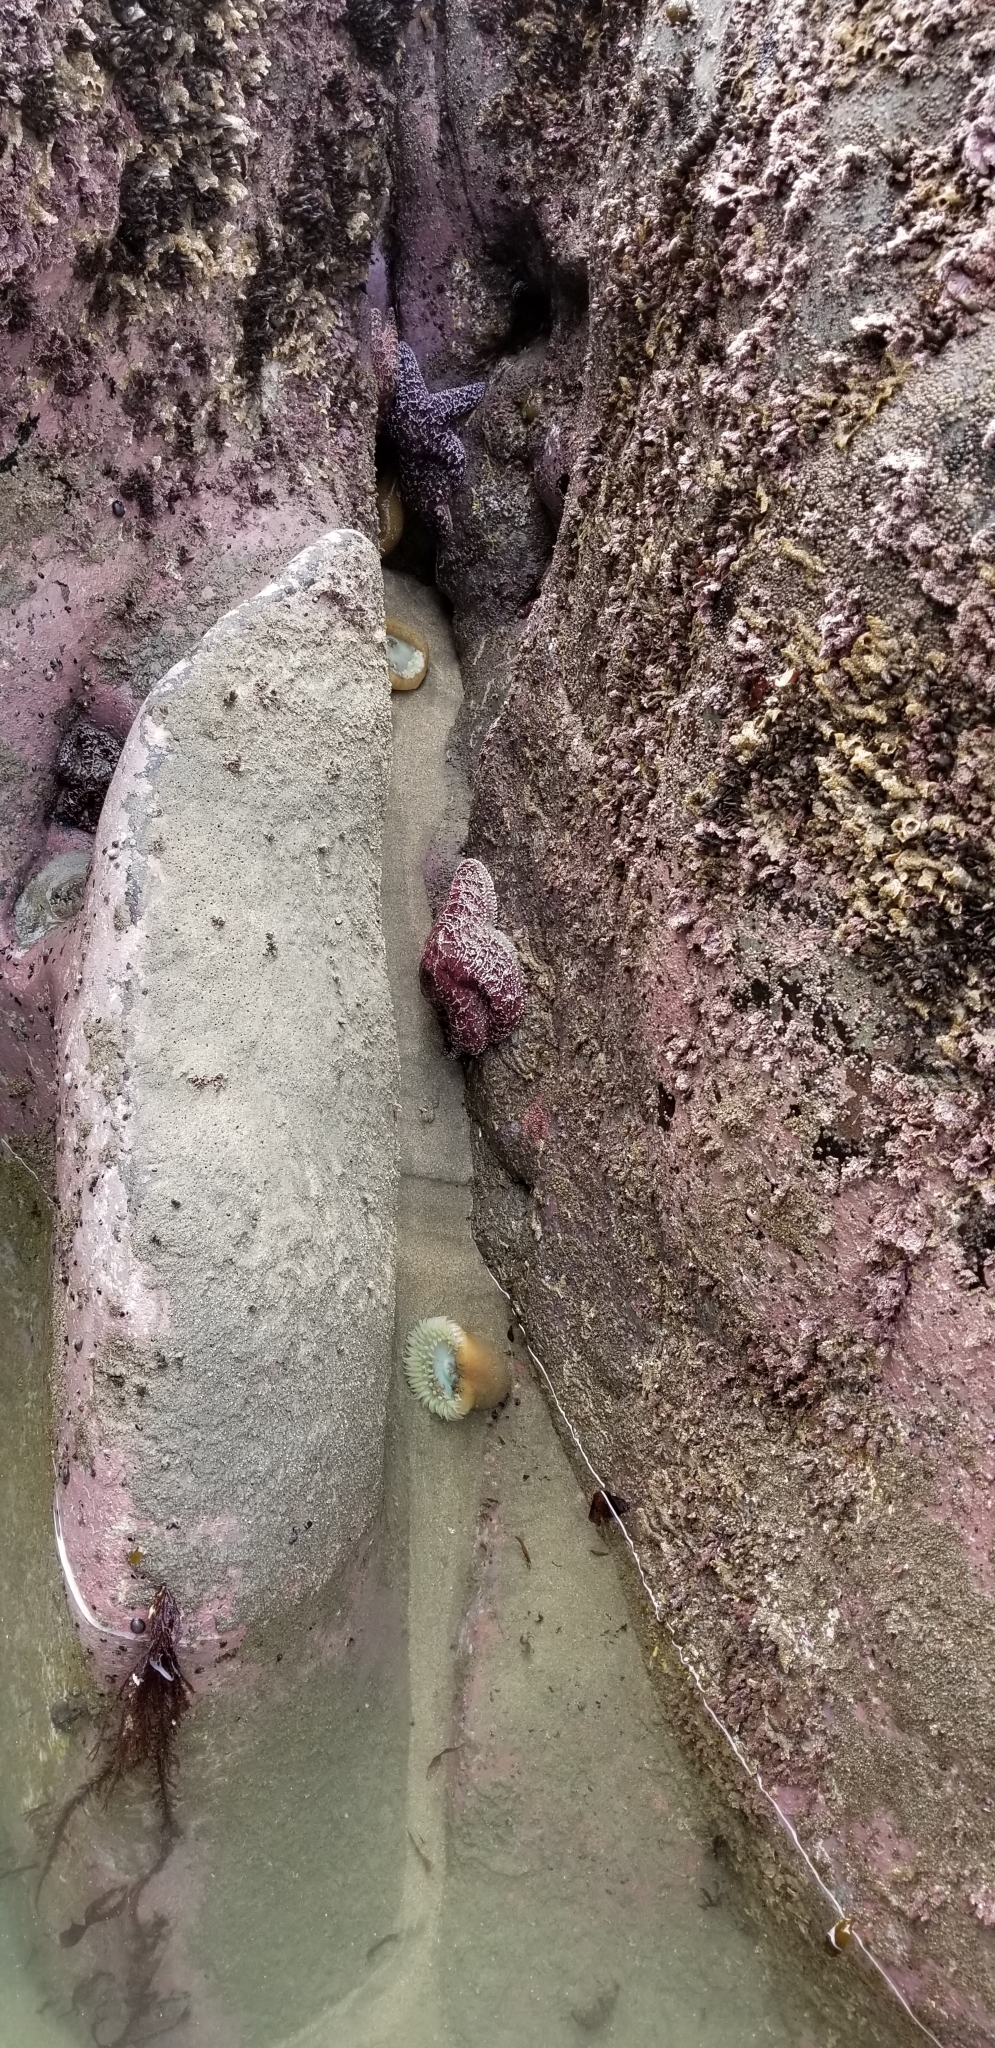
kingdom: Animalia
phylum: Echinodermata
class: Asteroidea
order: Forcipulatida
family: Asteriidae
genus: Pisaster
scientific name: Pisaster ochraceus
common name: Ochre stars
